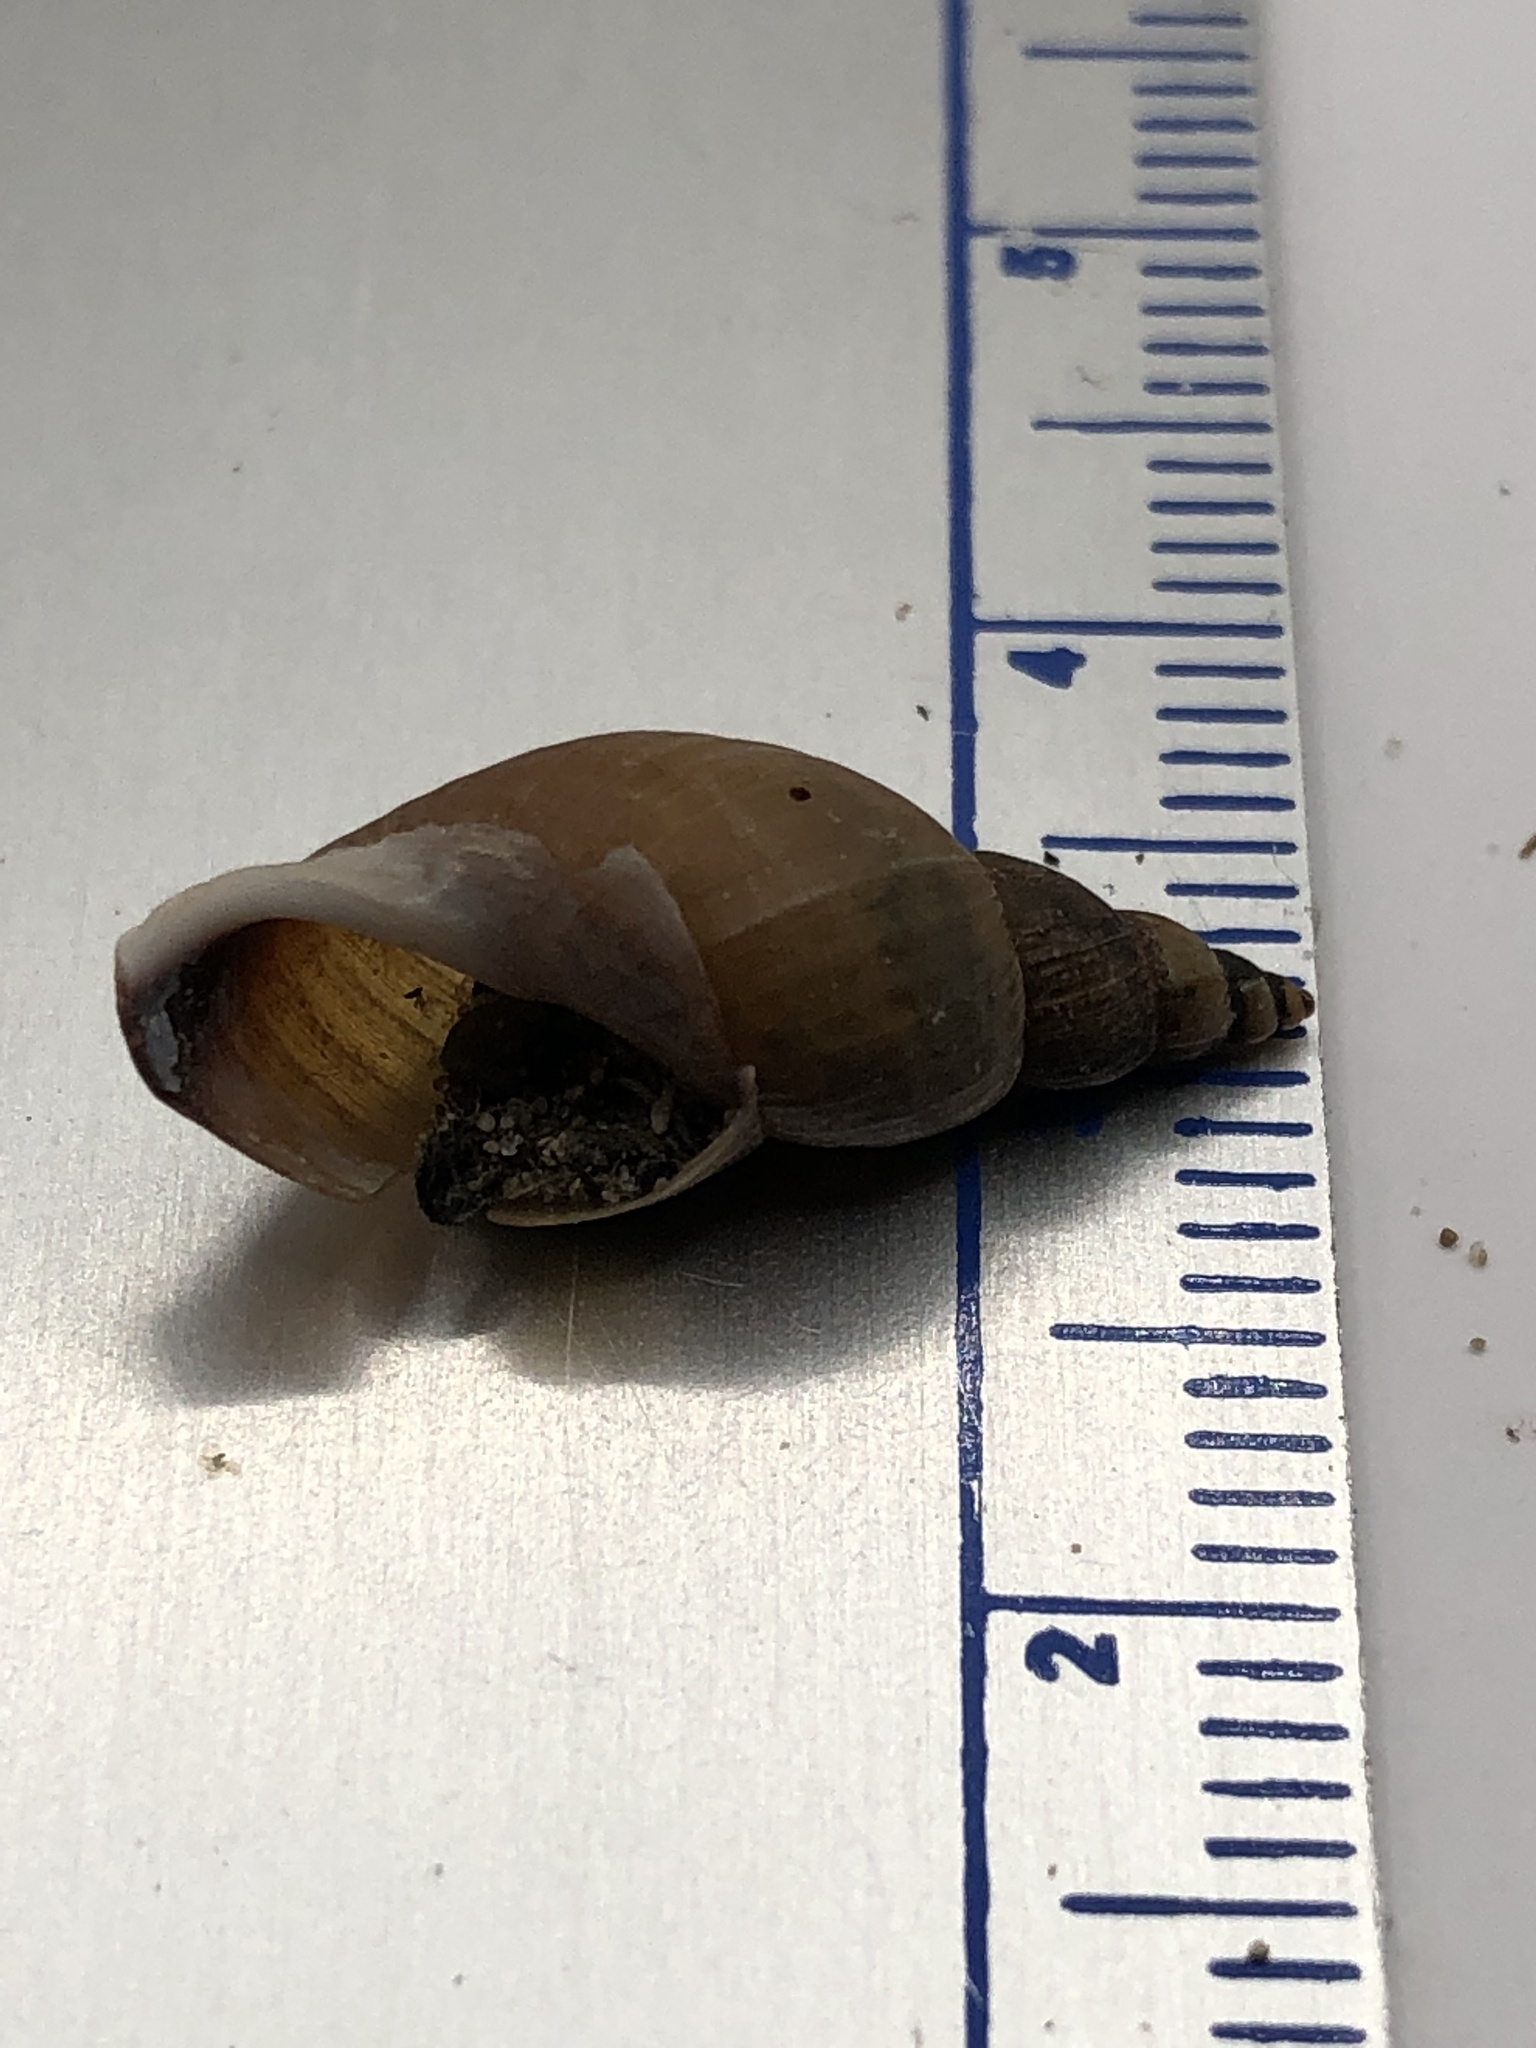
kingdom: Animalia
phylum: Mollusca
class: Gastropoda
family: Lymnaeidae
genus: Ladislavella
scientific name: Ladislavella elodes
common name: Marsh pondsnail
